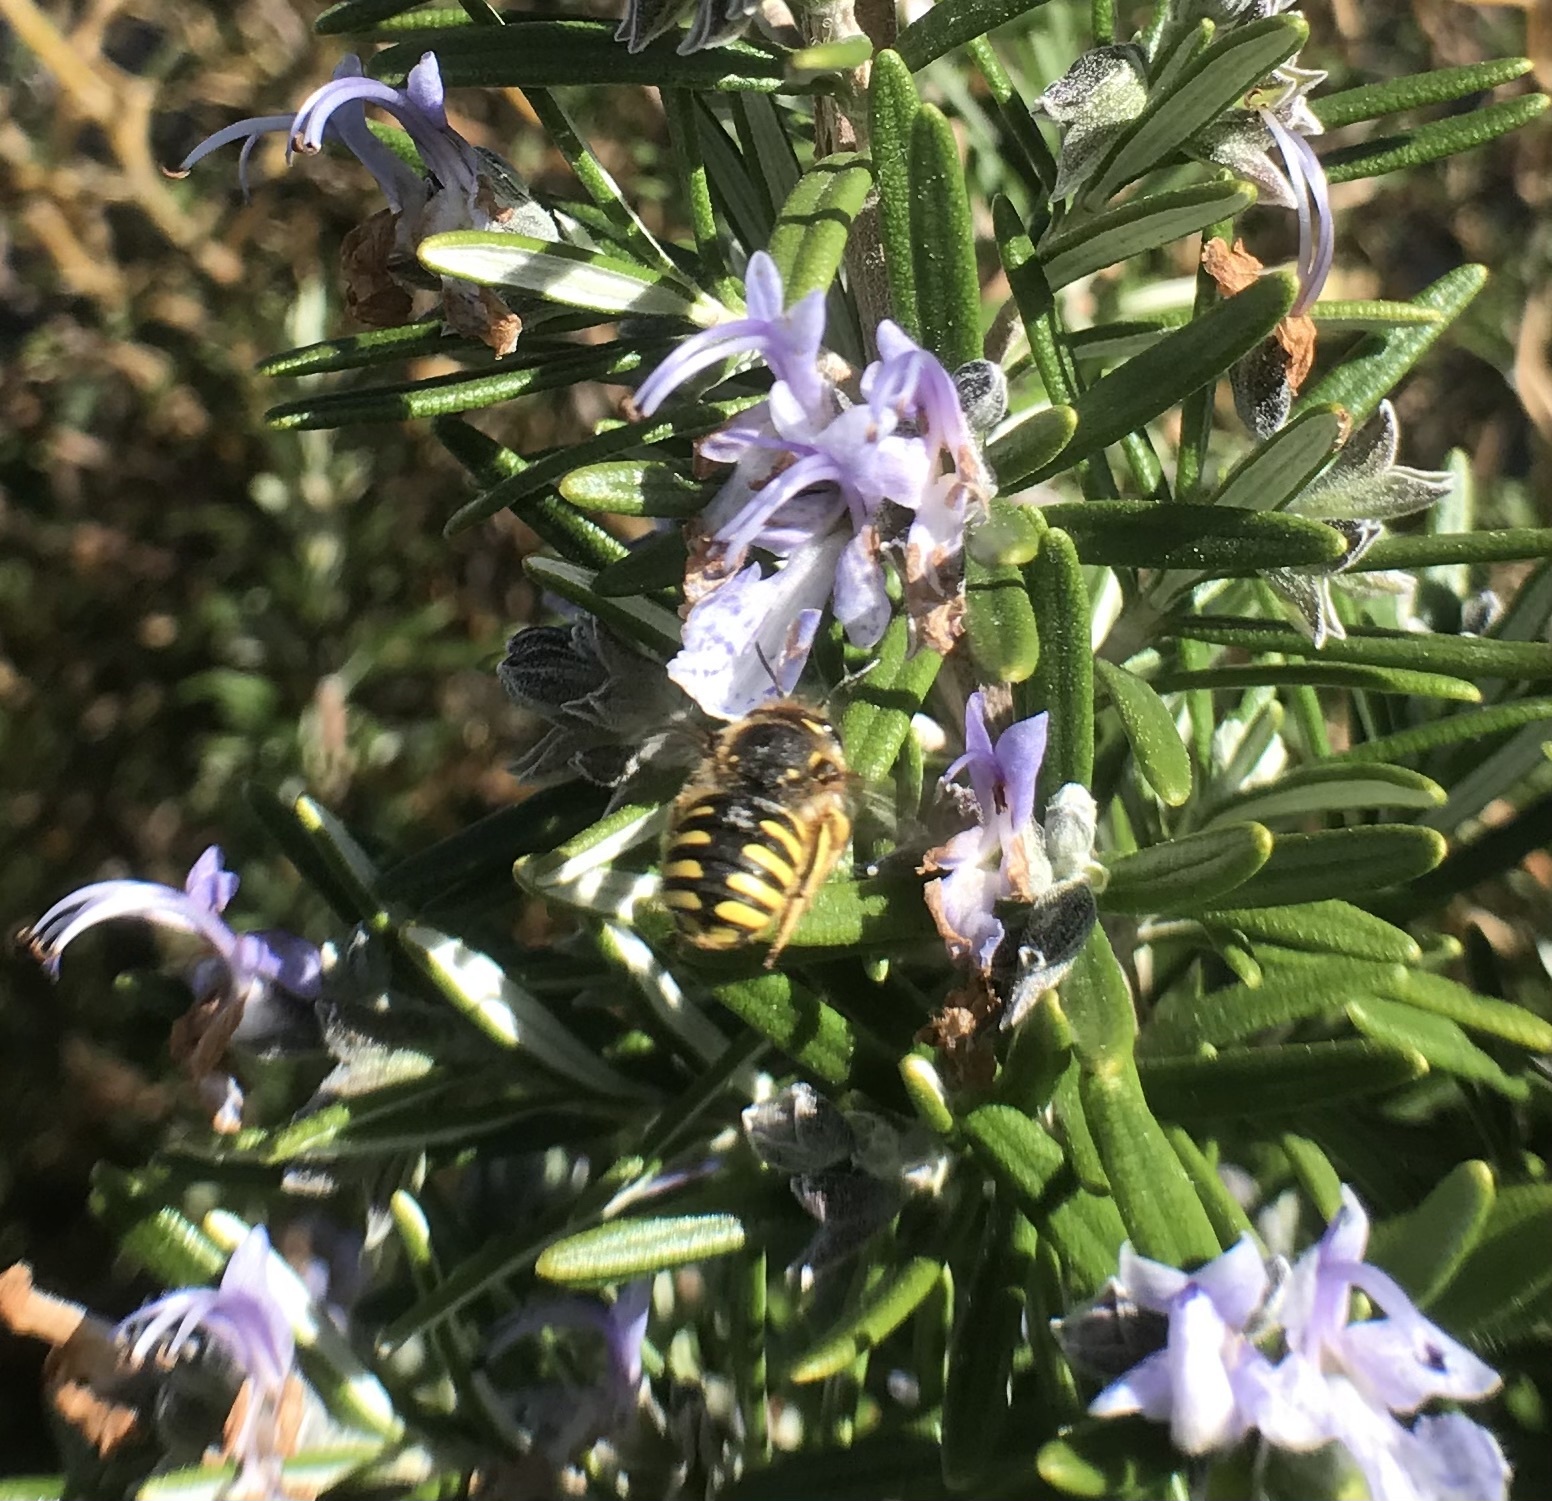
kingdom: Animalia
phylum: Arthropoda
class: Insecta
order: Hymenoptera
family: Megachilidae
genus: Anthidium
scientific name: Anthidium manicatum
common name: Wool carder bee
